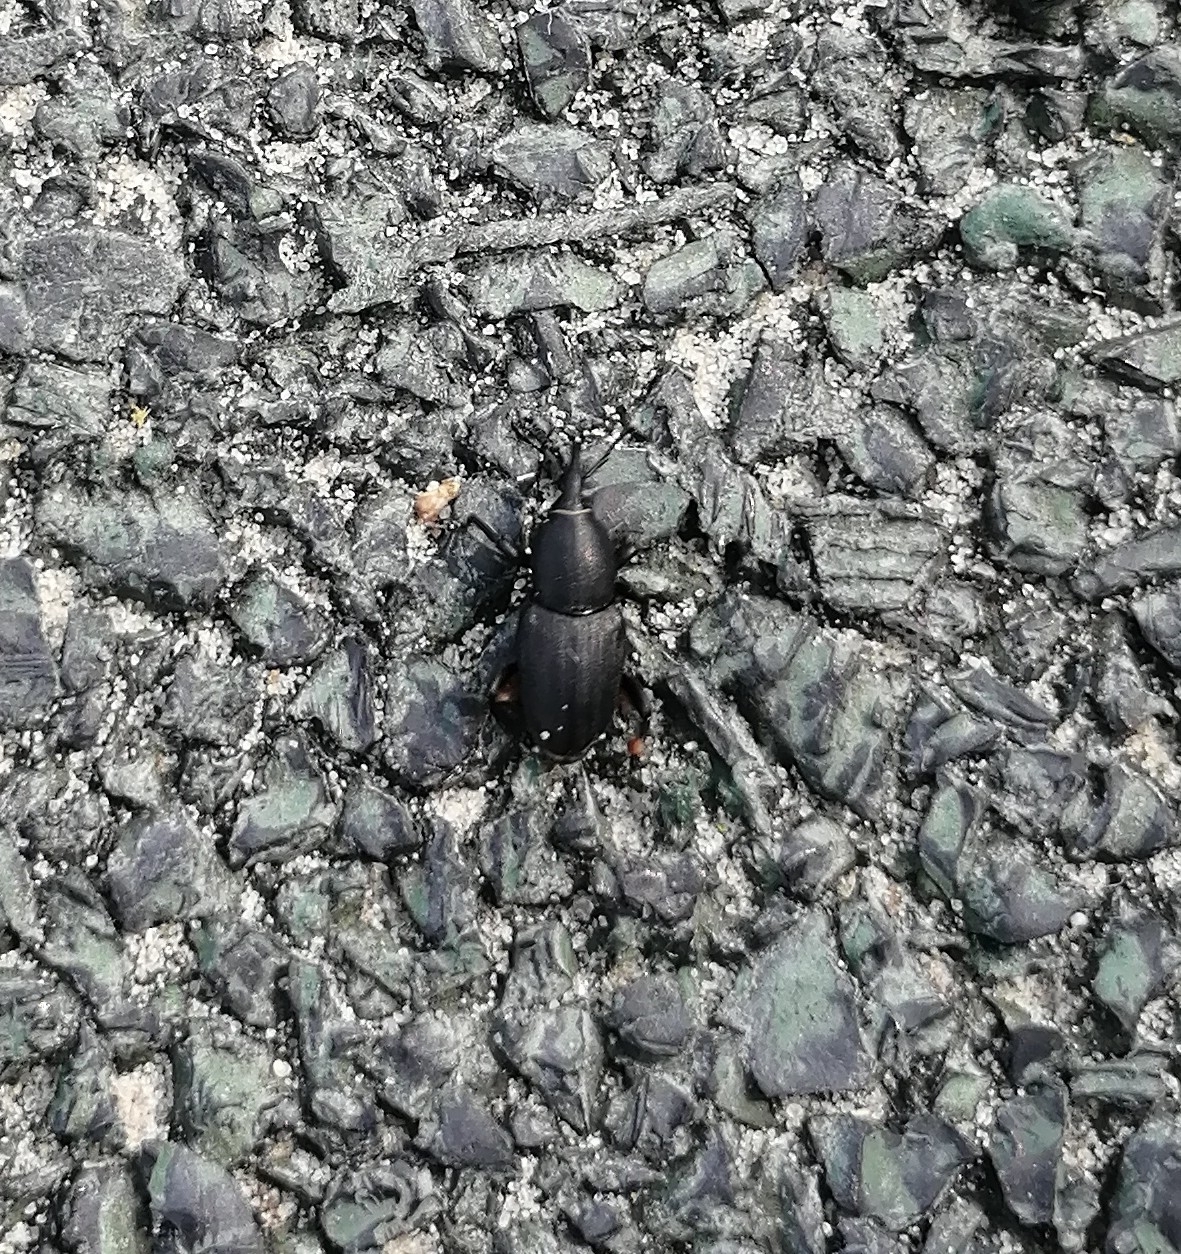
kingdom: Animalia
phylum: Arthropoda
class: Insecta
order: Coleoptera
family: Dryophthoridae
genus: Sphenophorus
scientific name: Sphenophorus striatopunctatus
